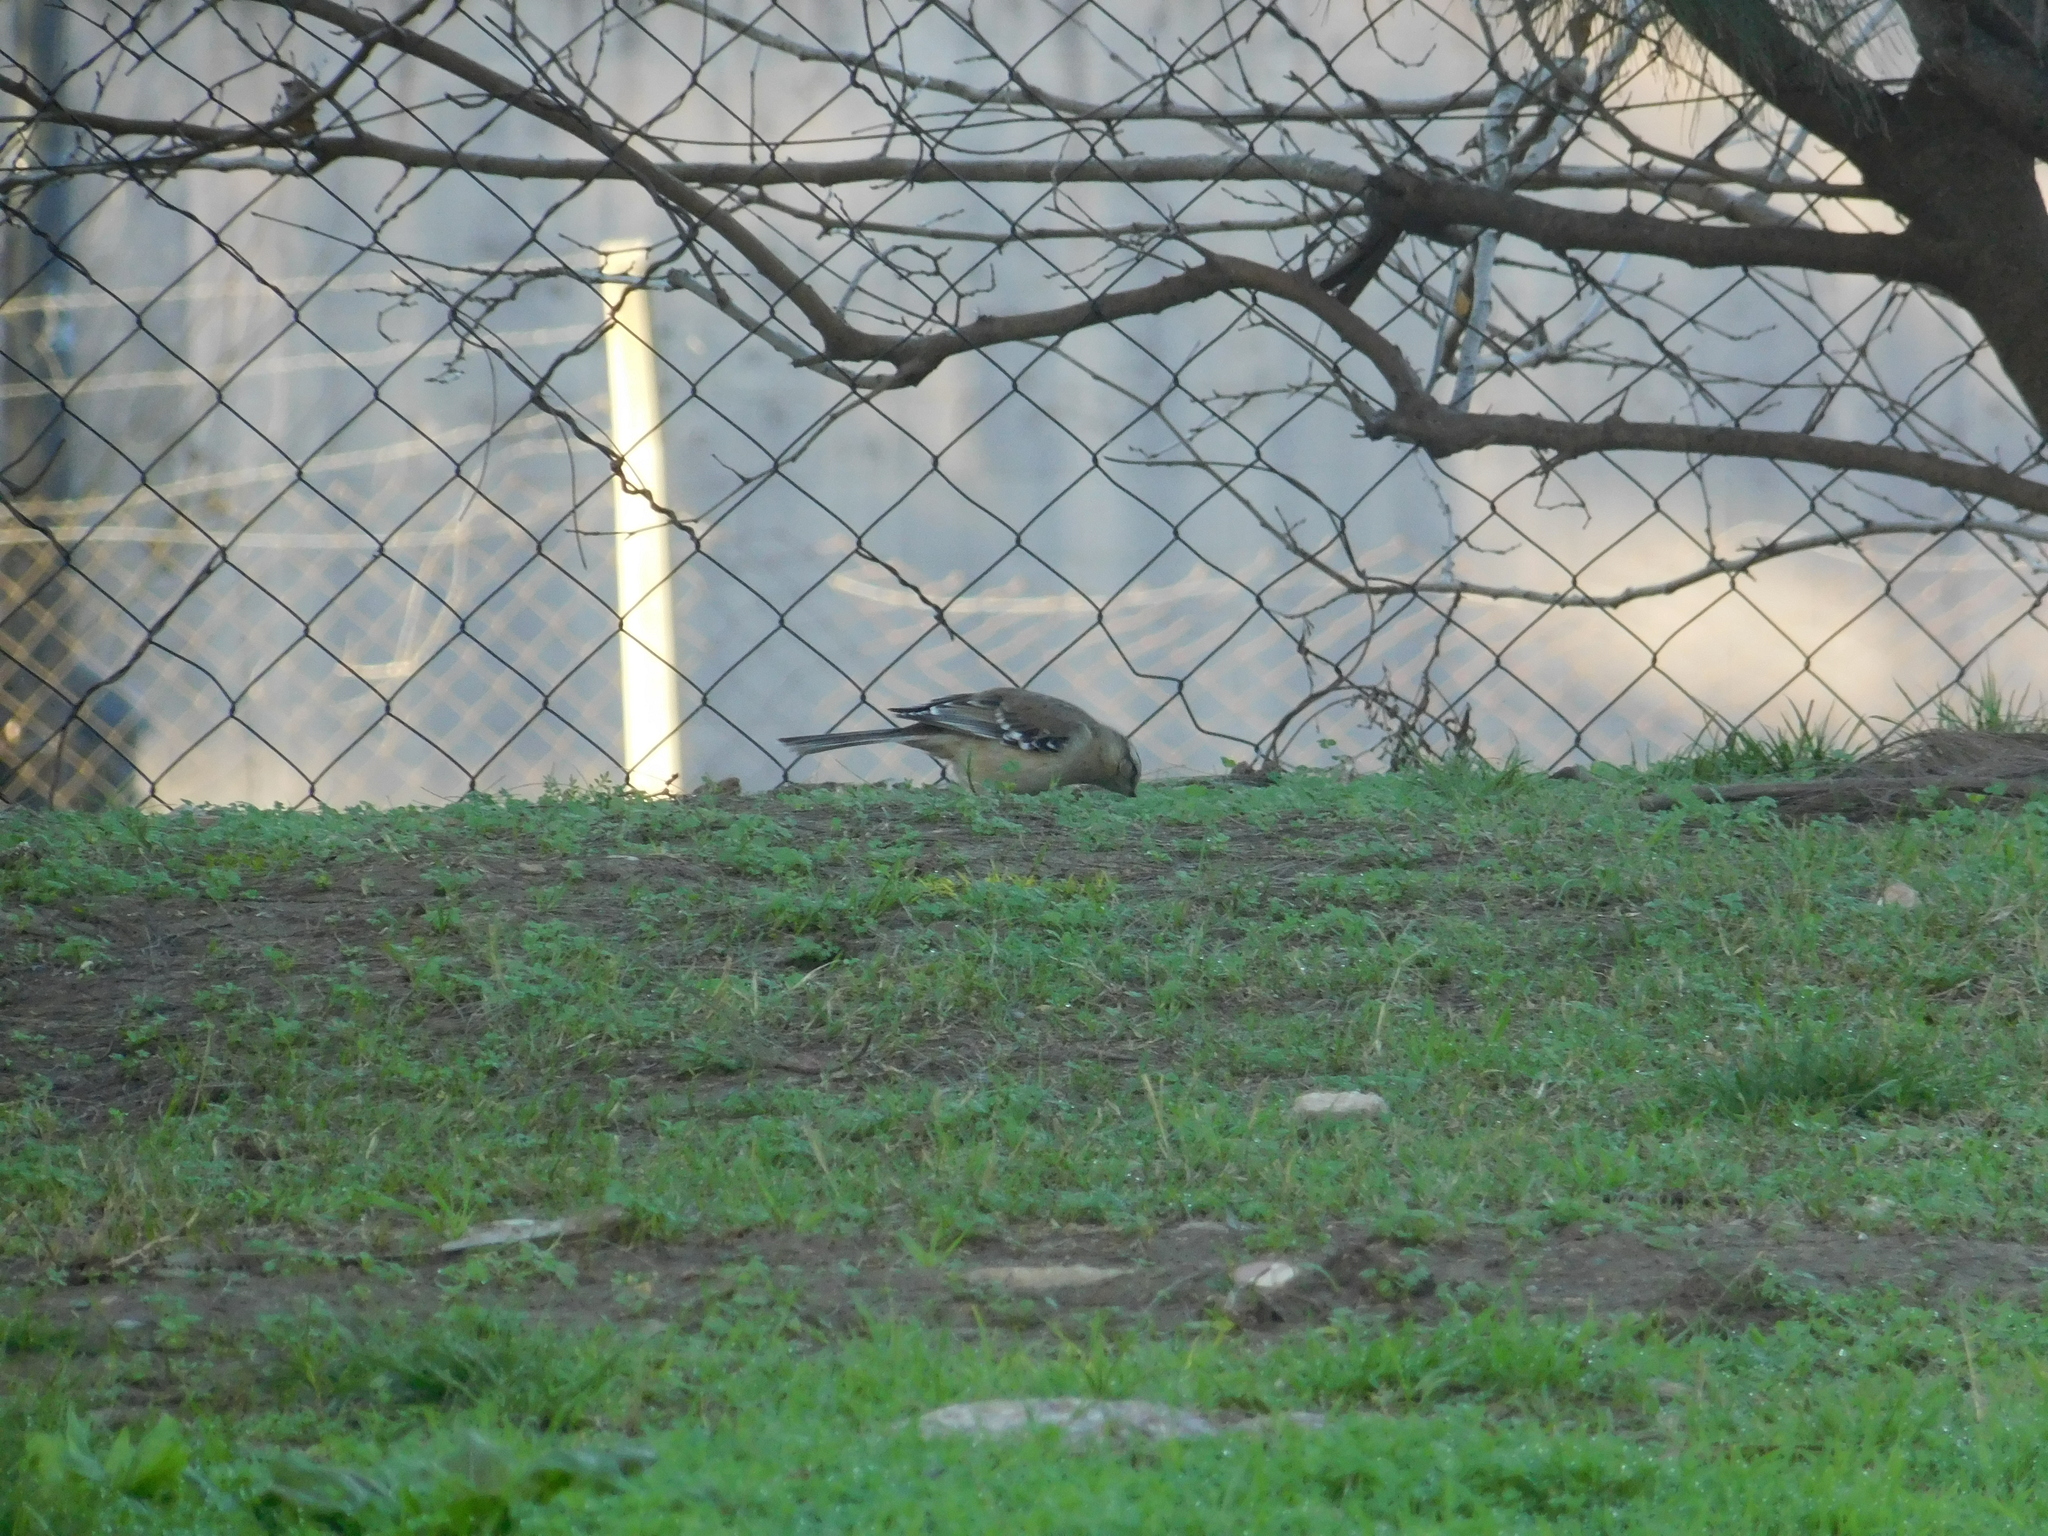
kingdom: Animalia
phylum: Chordata
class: Aves
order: Passeriformes
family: Mimidae
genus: Mimus
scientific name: Mimus saturninus
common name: Chalk-browed mockingbird
